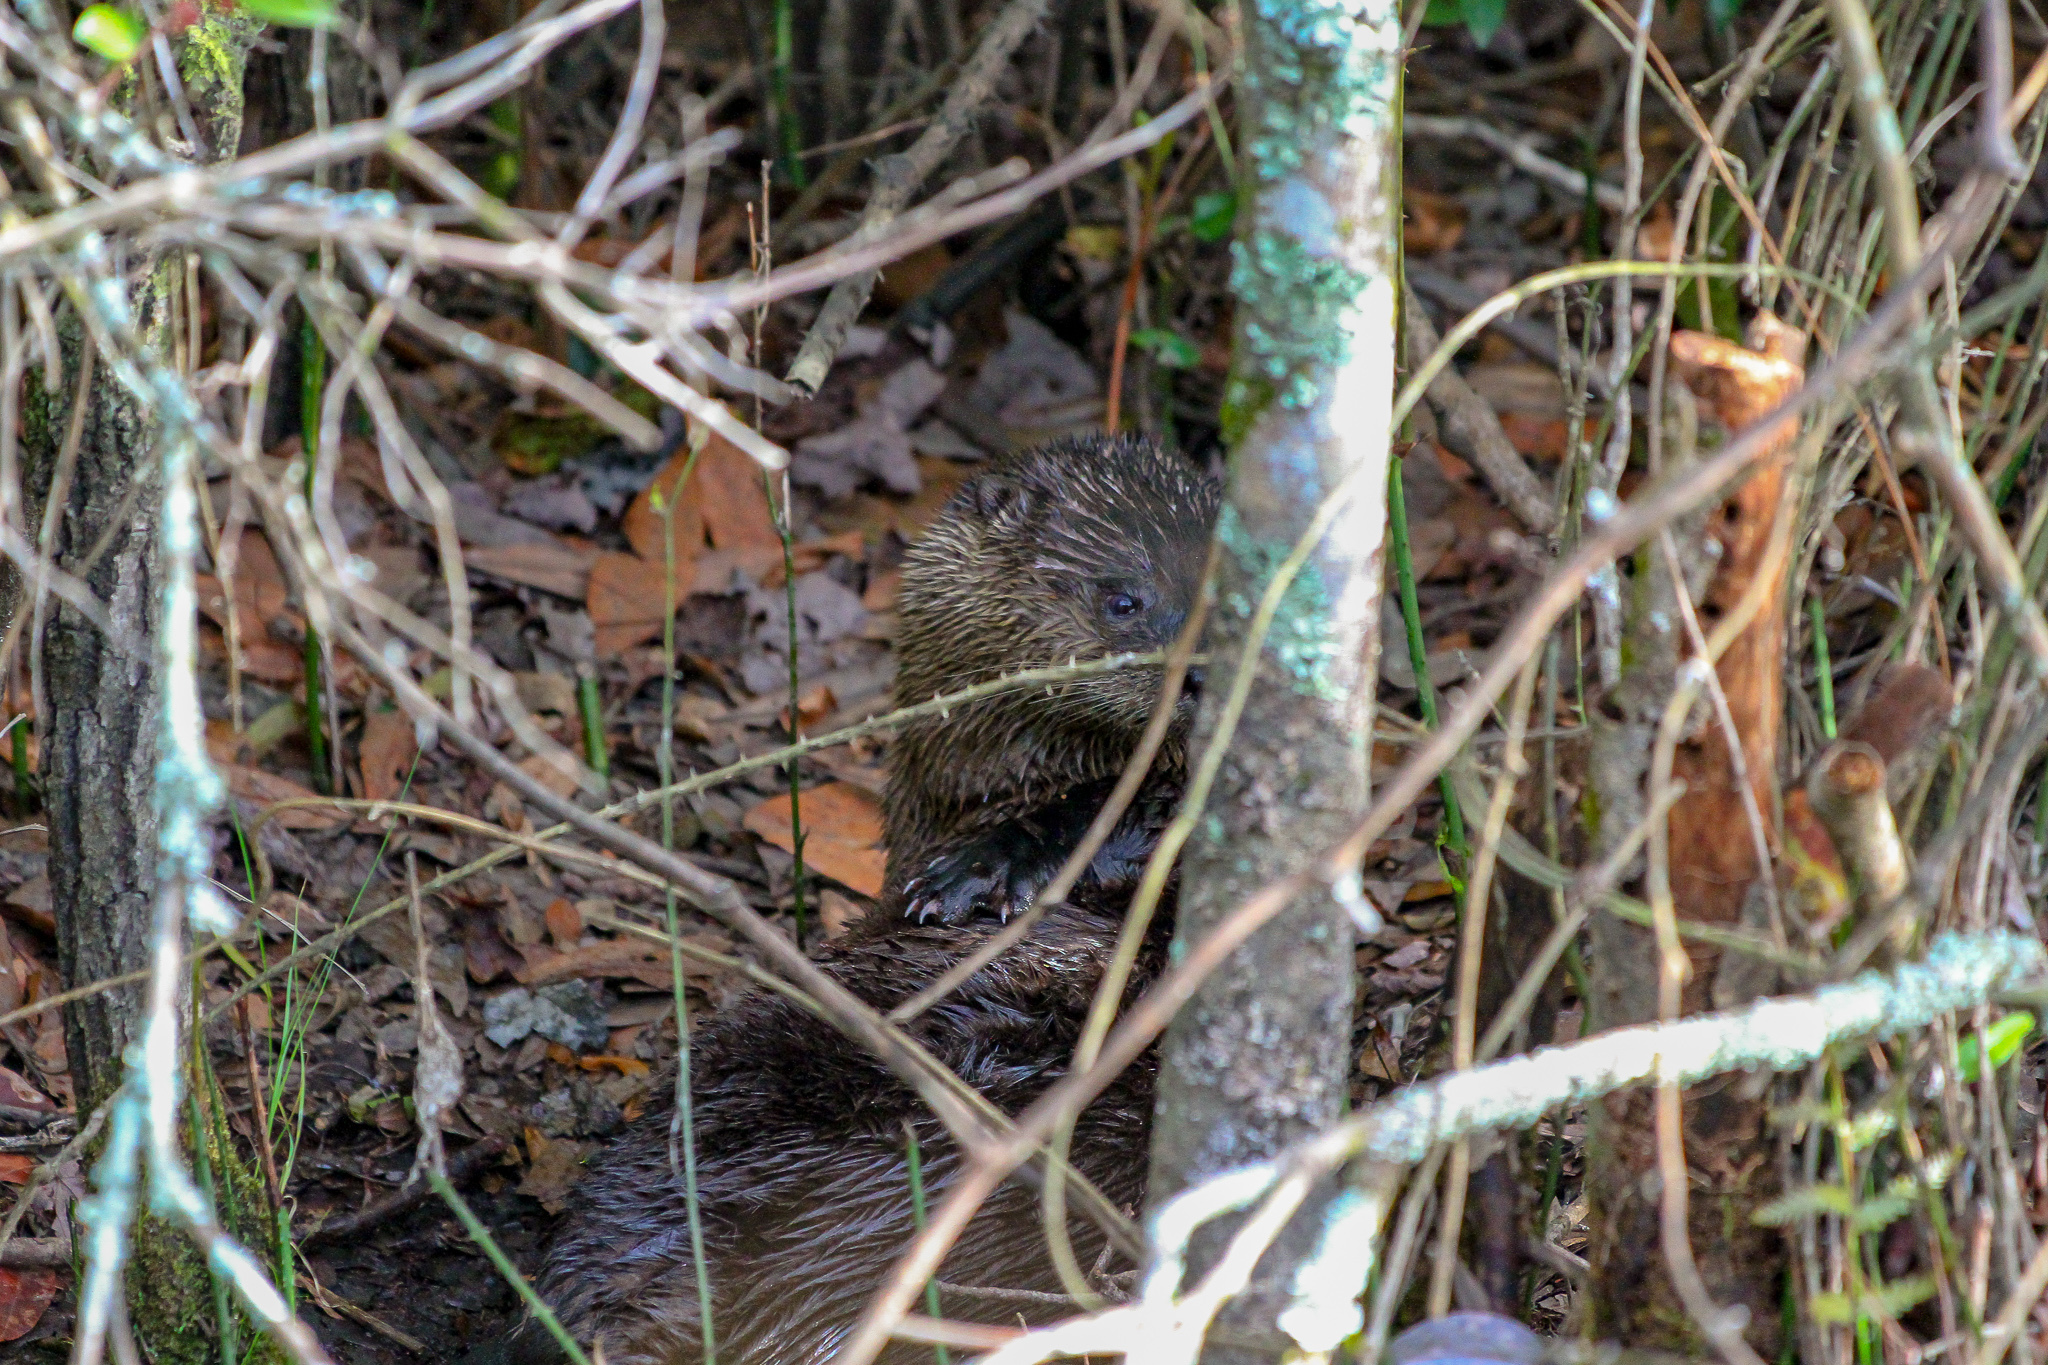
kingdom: Animalia
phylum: Chordata
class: Mammalia
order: Carnivora
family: Mustelidae
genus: Lontra
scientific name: Lontra canadensis
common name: North american river otter
